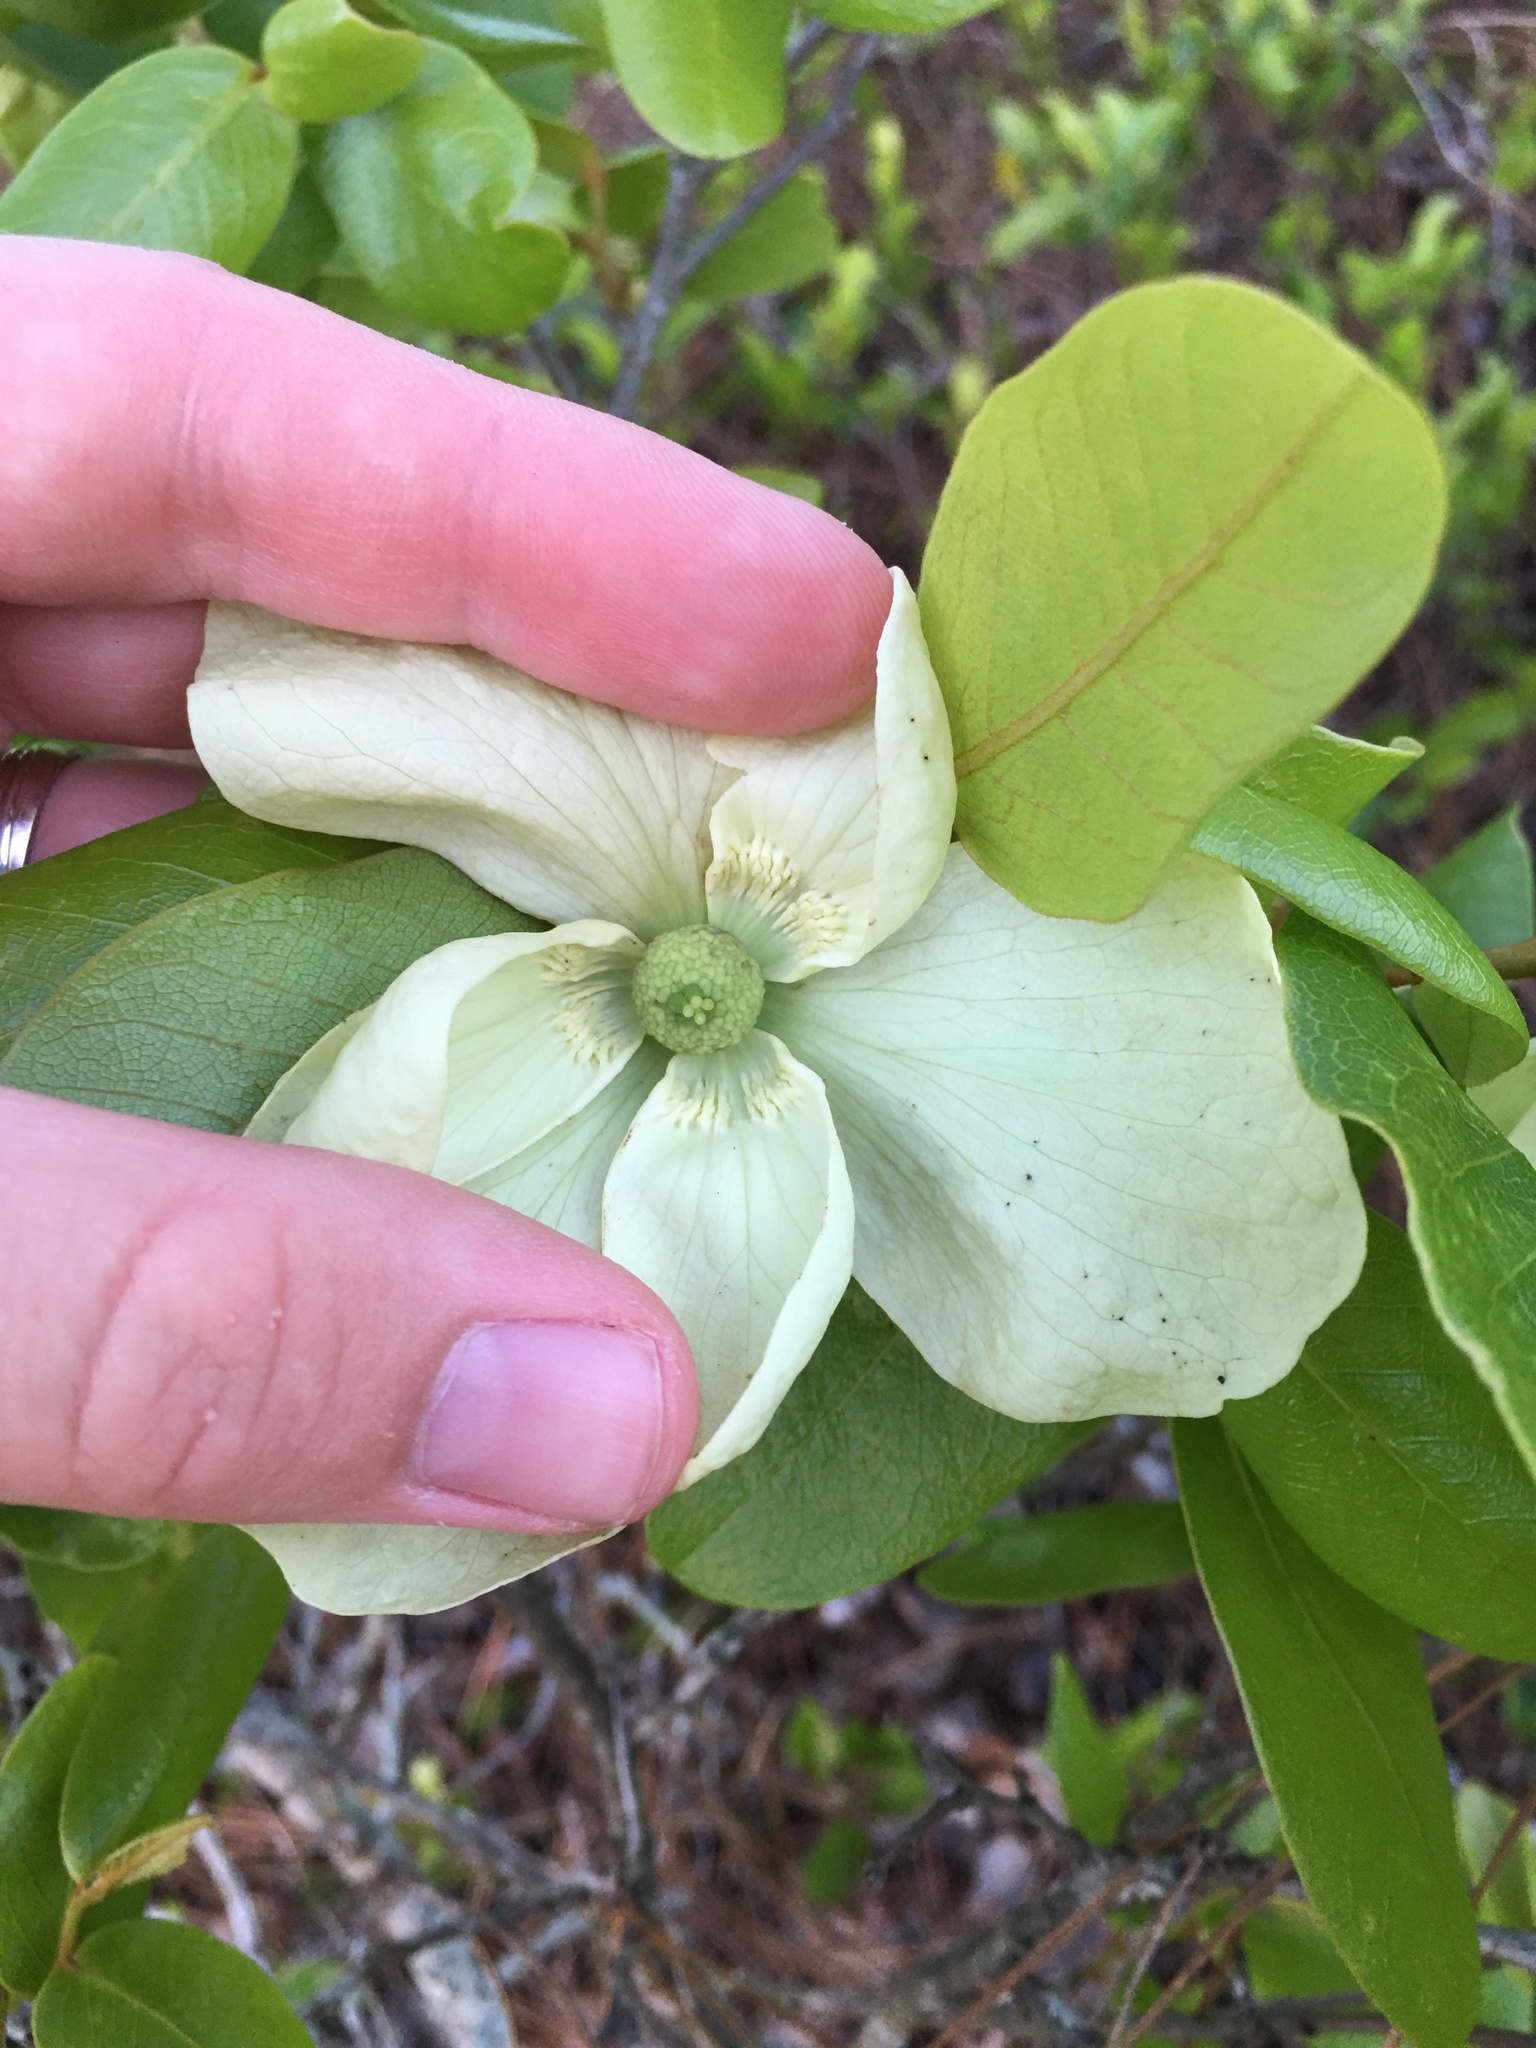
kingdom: Plantae
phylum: Tracheophyta
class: Magnoliopsida
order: Magnoliales
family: Annonaceae
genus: Asimina
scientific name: Asimina obovata
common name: Flag pawpaw
